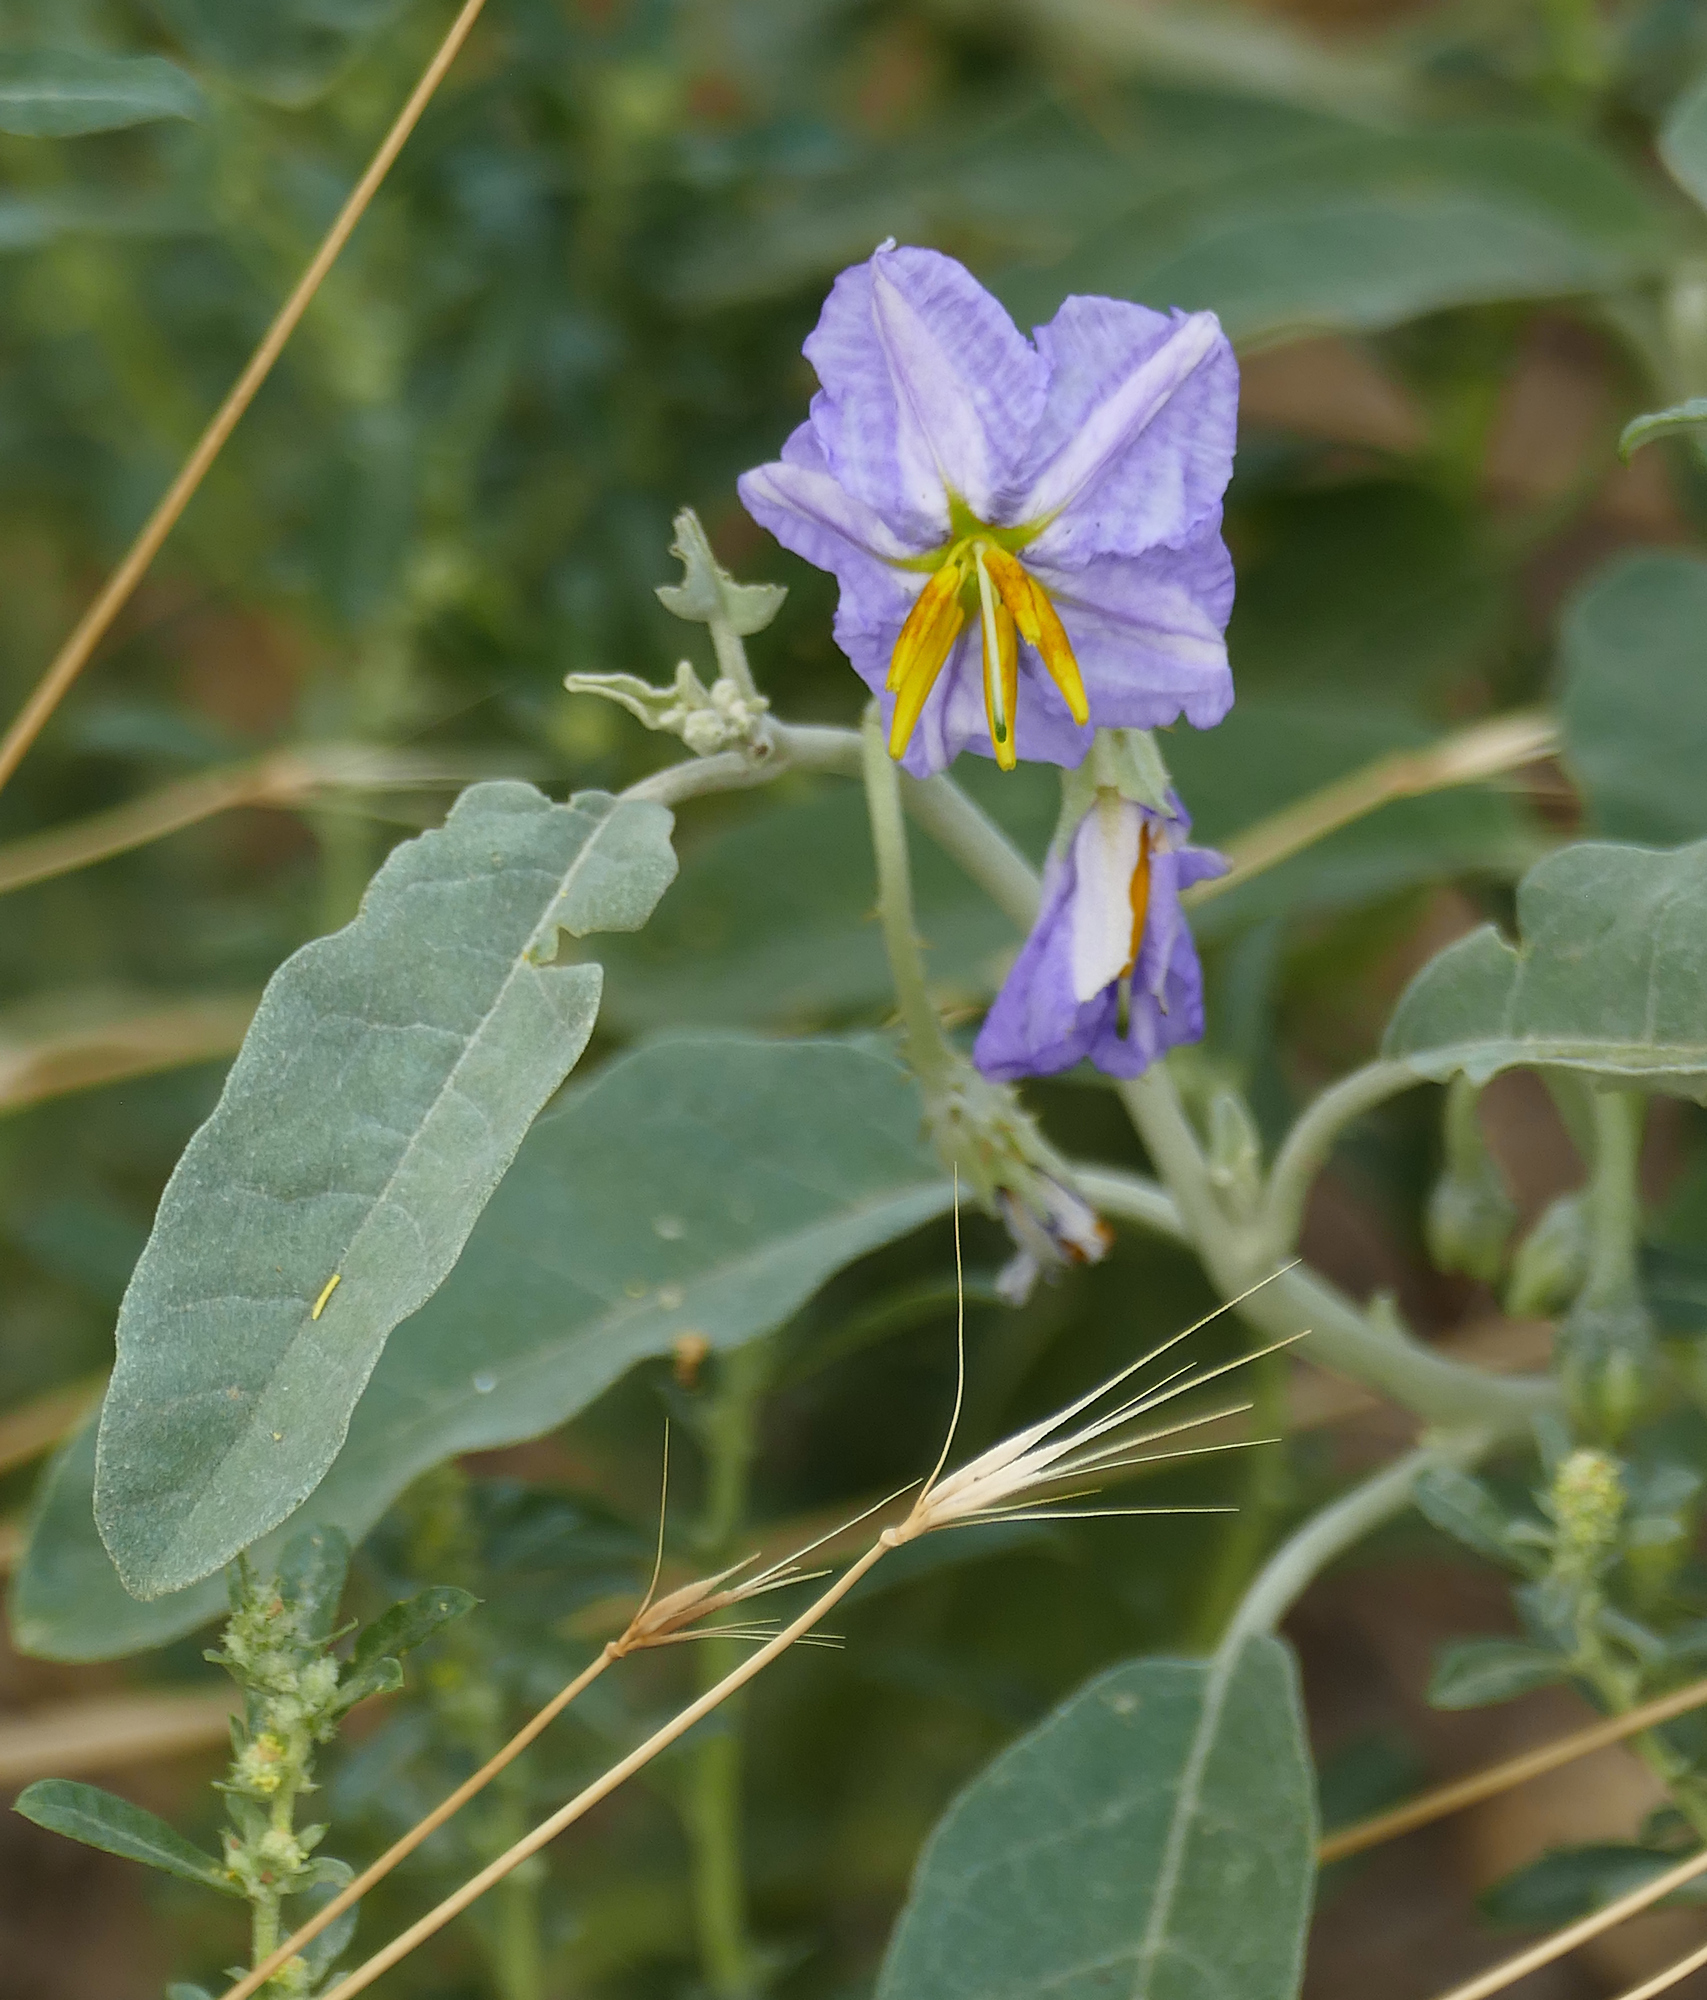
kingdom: Plantae
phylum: Tracheophyta
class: Magnoliopsida
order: Solanales
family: Solanaceae
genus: Solanum
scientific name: Solanum elaeagnifolium
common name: Silverleaf nightshade
